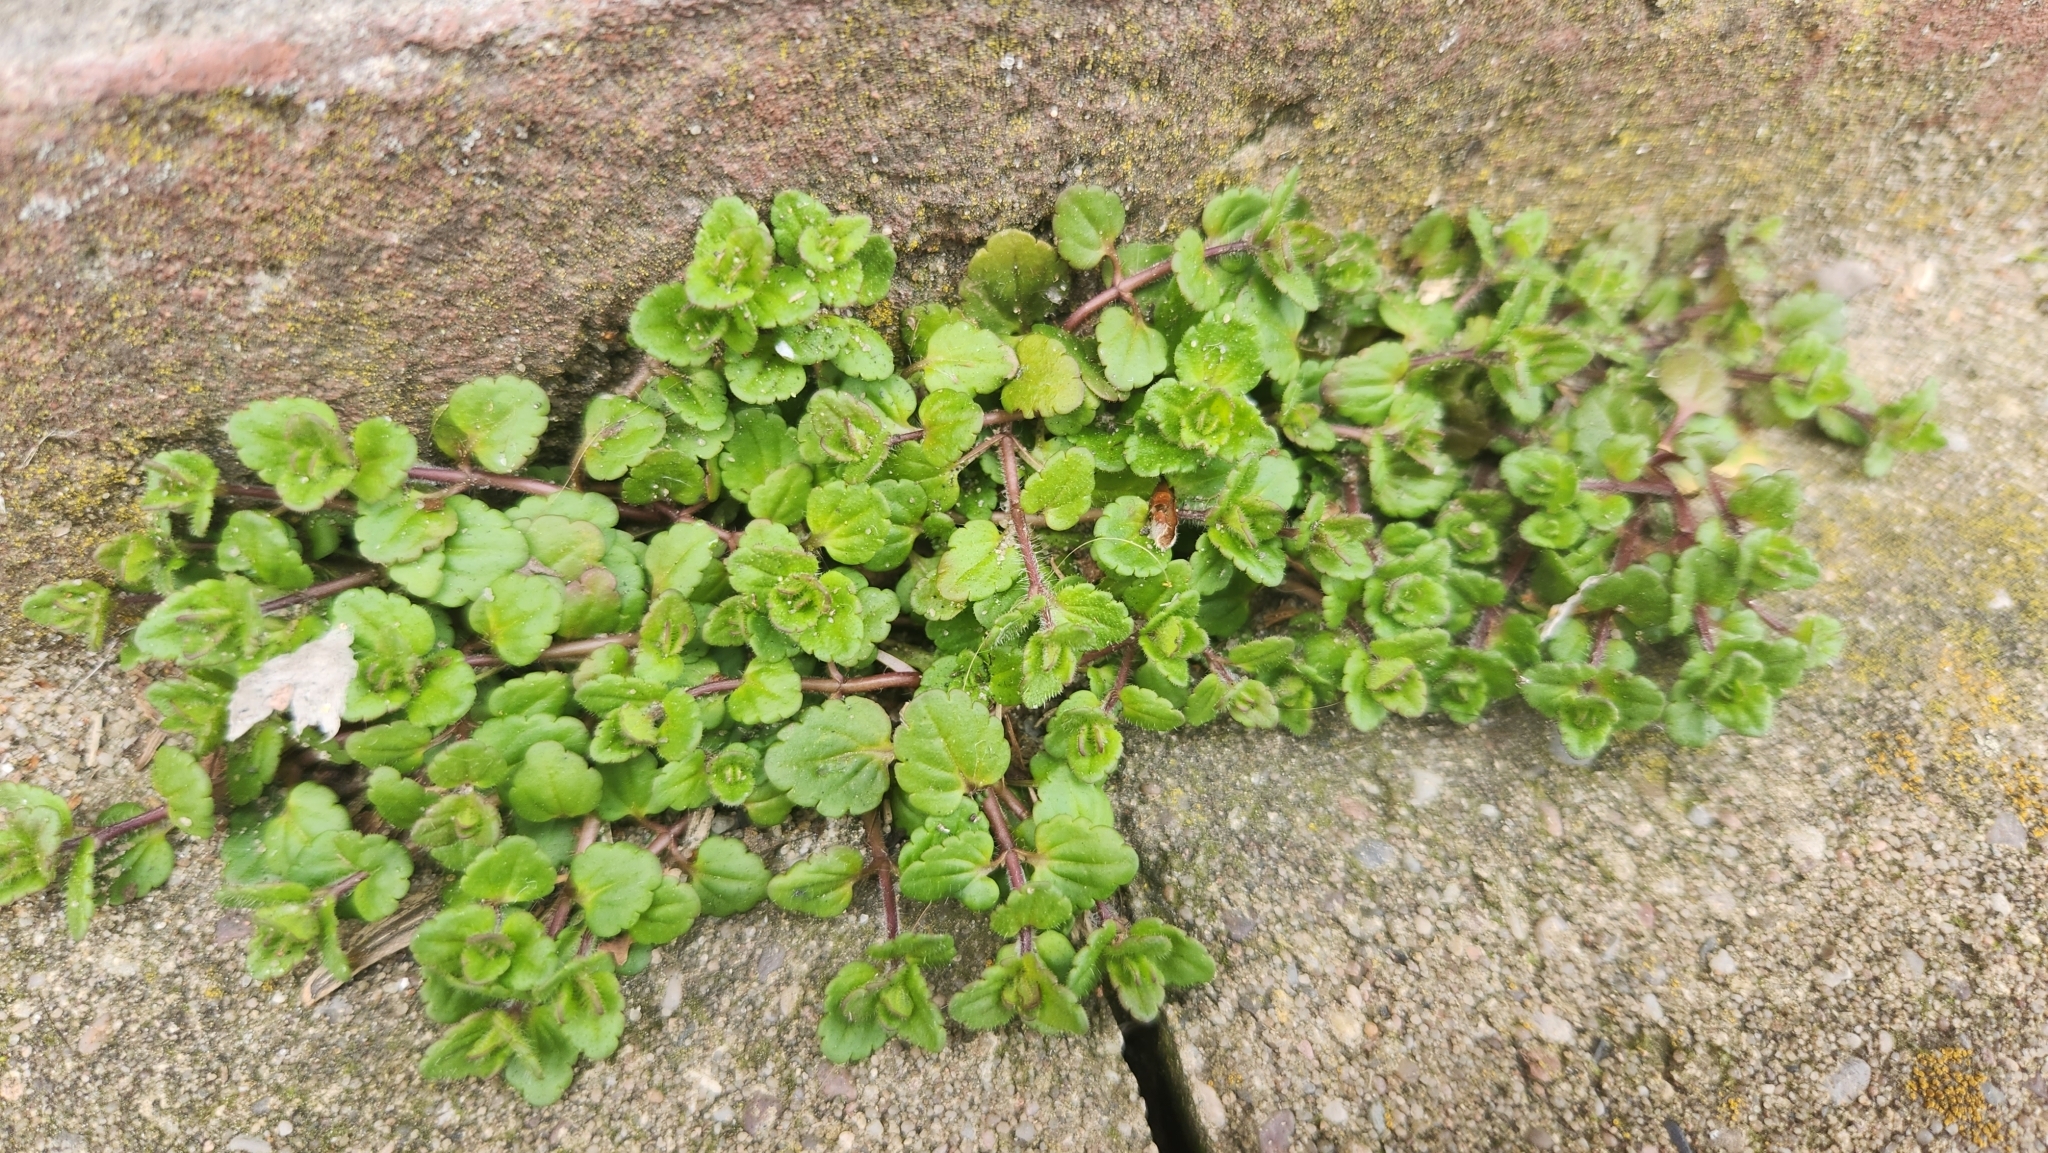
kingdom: Plantae
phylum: Tracheophyta
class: Magnoliopsida
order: Lamiales
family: Plantaginaceae
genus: Veronica
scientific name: Veronica arvensis
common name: Corn speedwell
